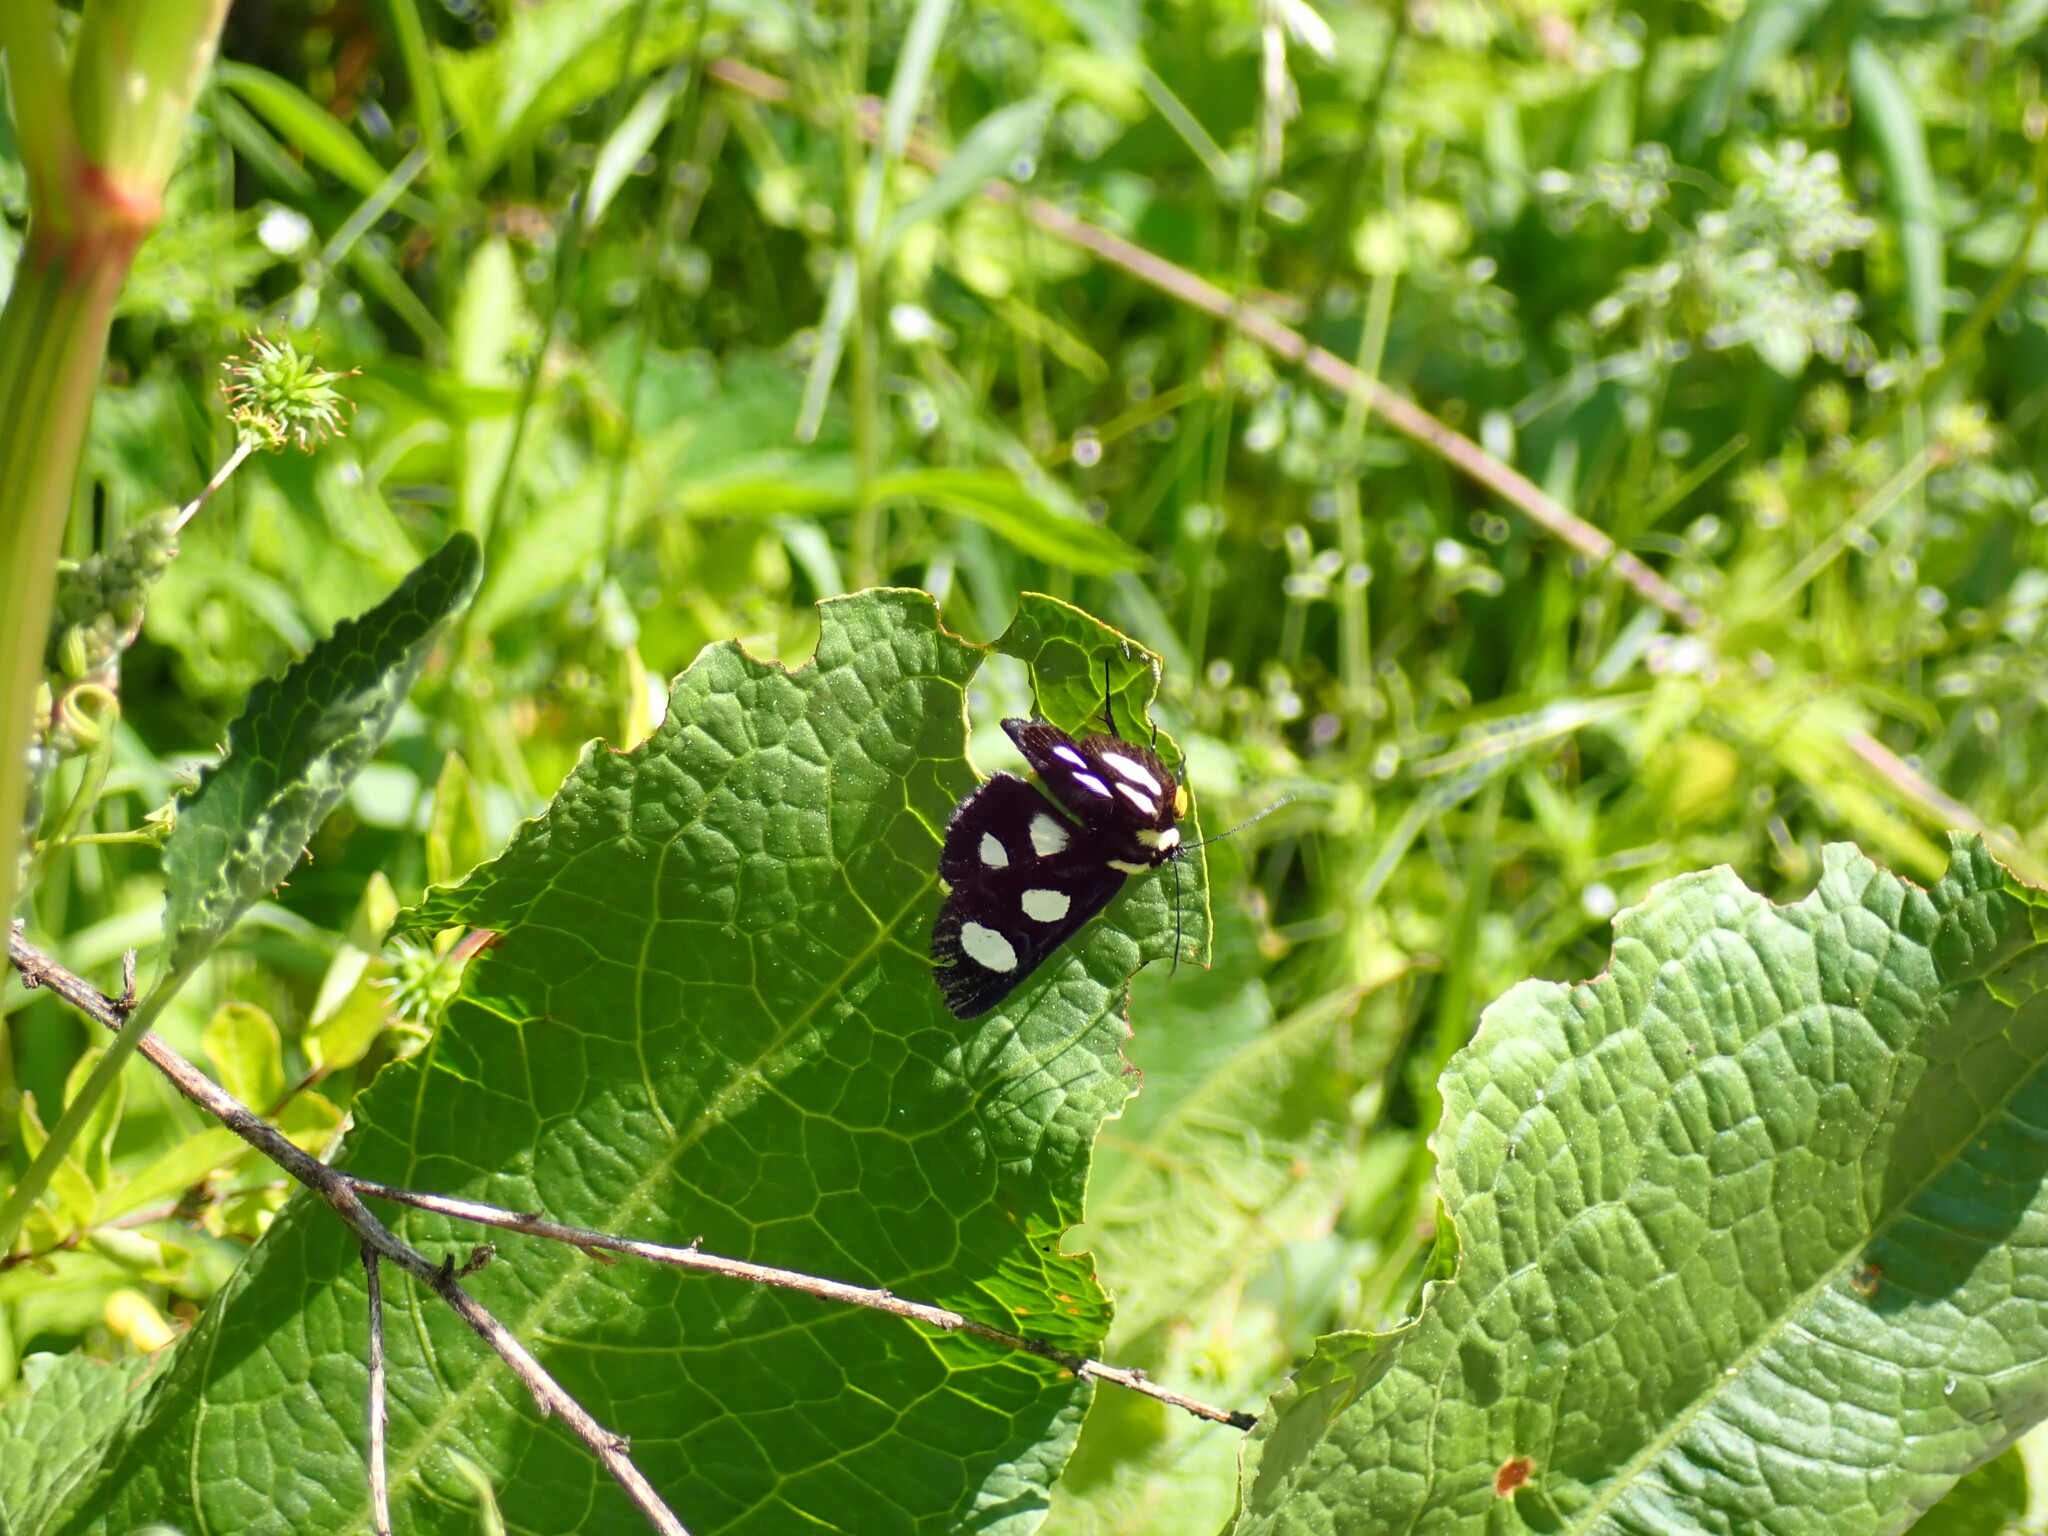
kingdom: Animalia
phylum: Arthropoda
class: Insecta
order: Lepidoptera
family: Noctuidae
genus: Alypia
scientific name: Alypia octomaculata
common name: Eight-spotted forester
